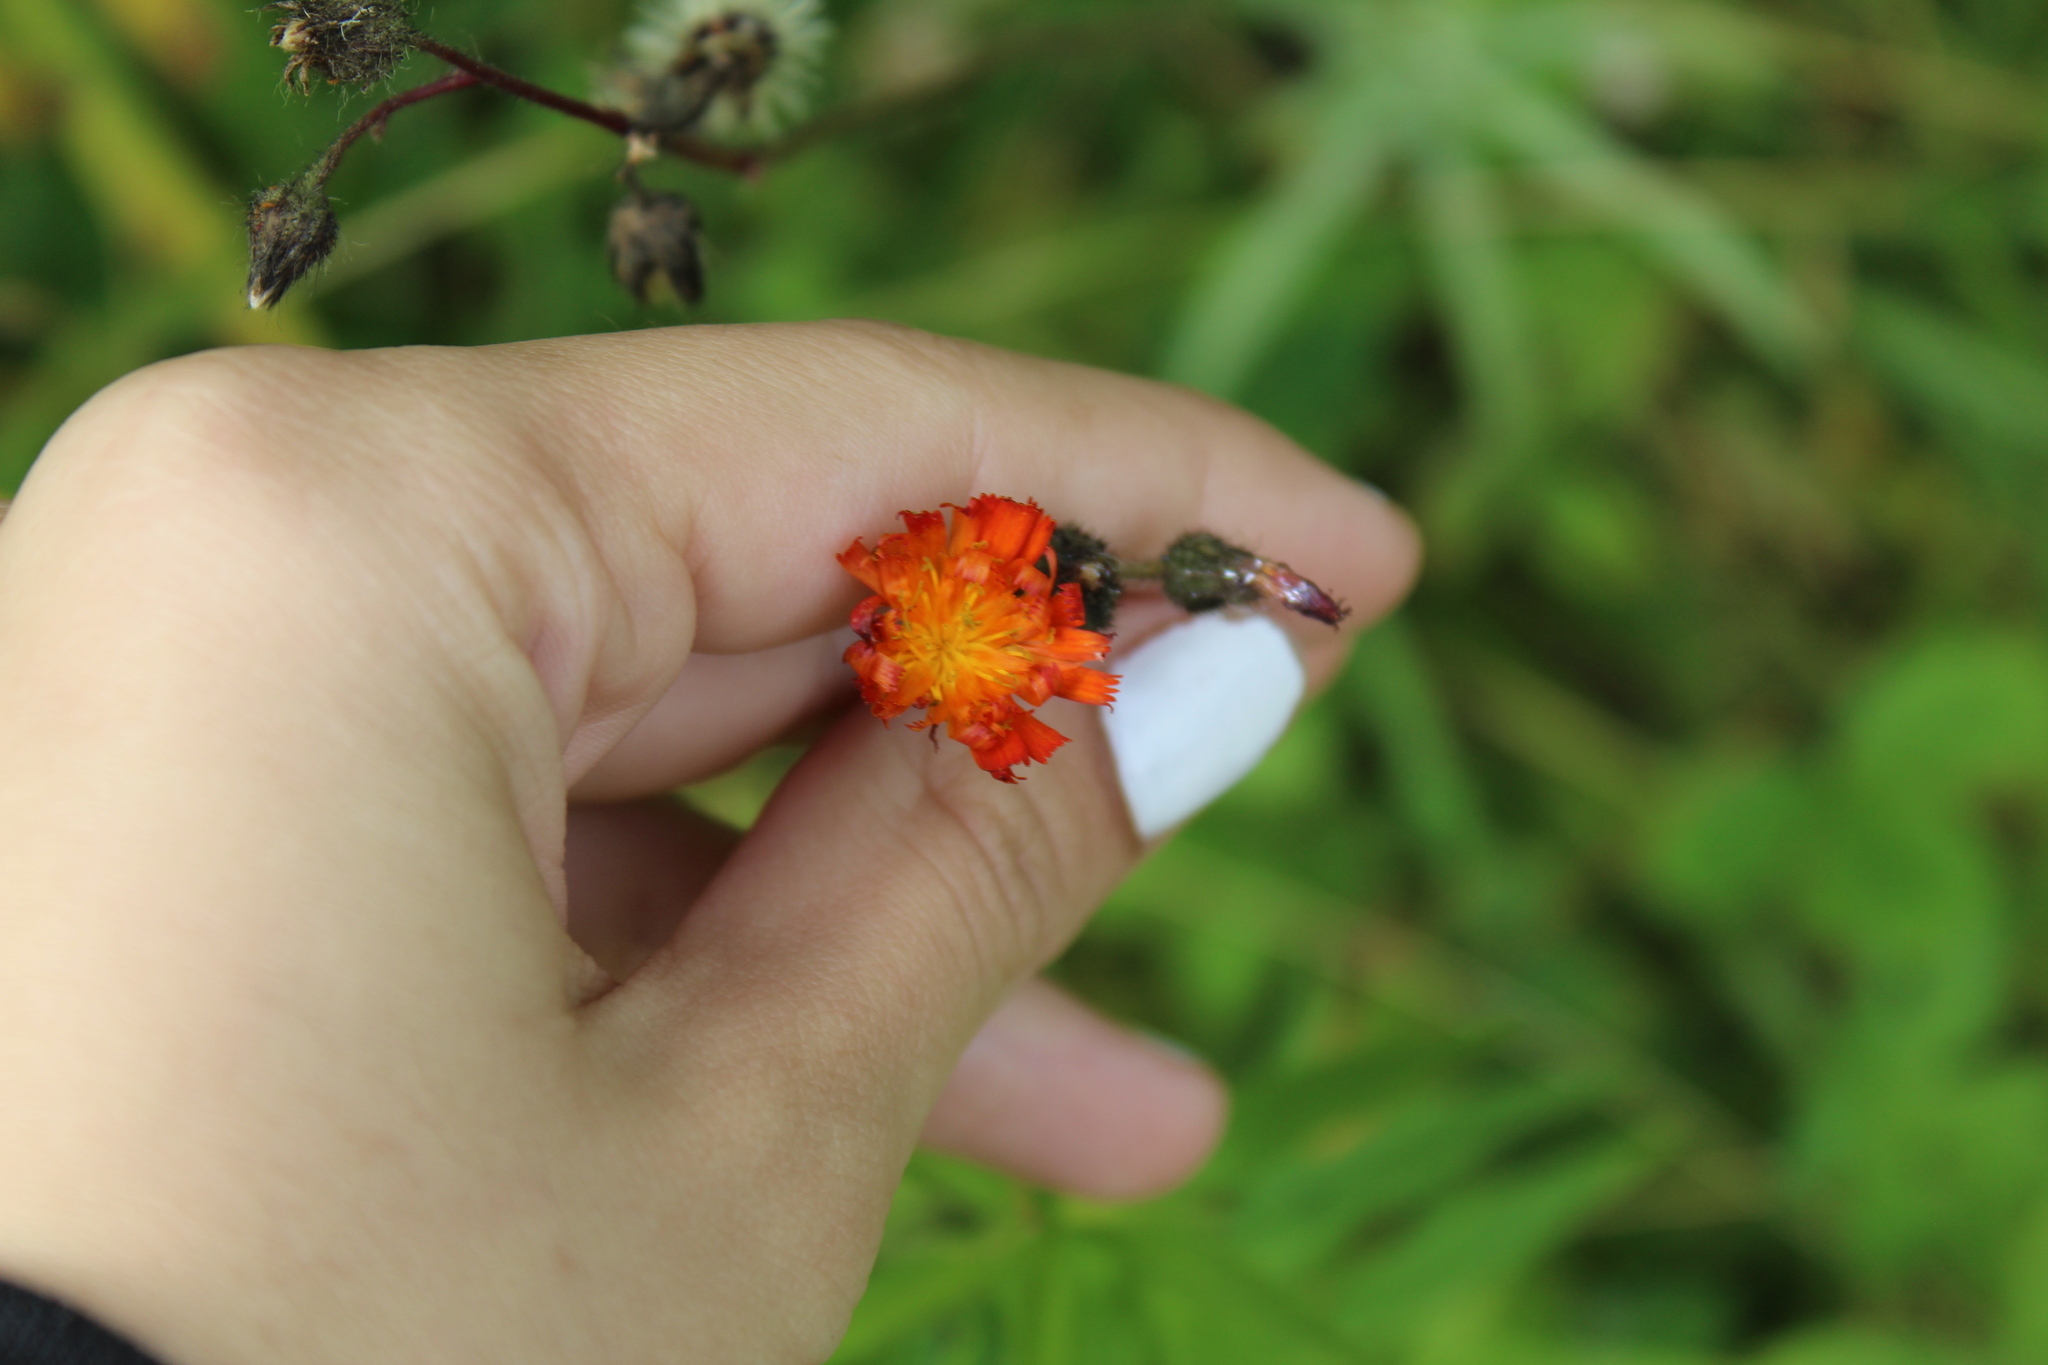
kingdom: Plantae
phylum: Tracheophyta
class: Magnoliopsida
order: Asterales
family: Asteraceae
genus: Pilosella
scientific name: Pilosella aurantiaca
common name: Fox-and-cubs
